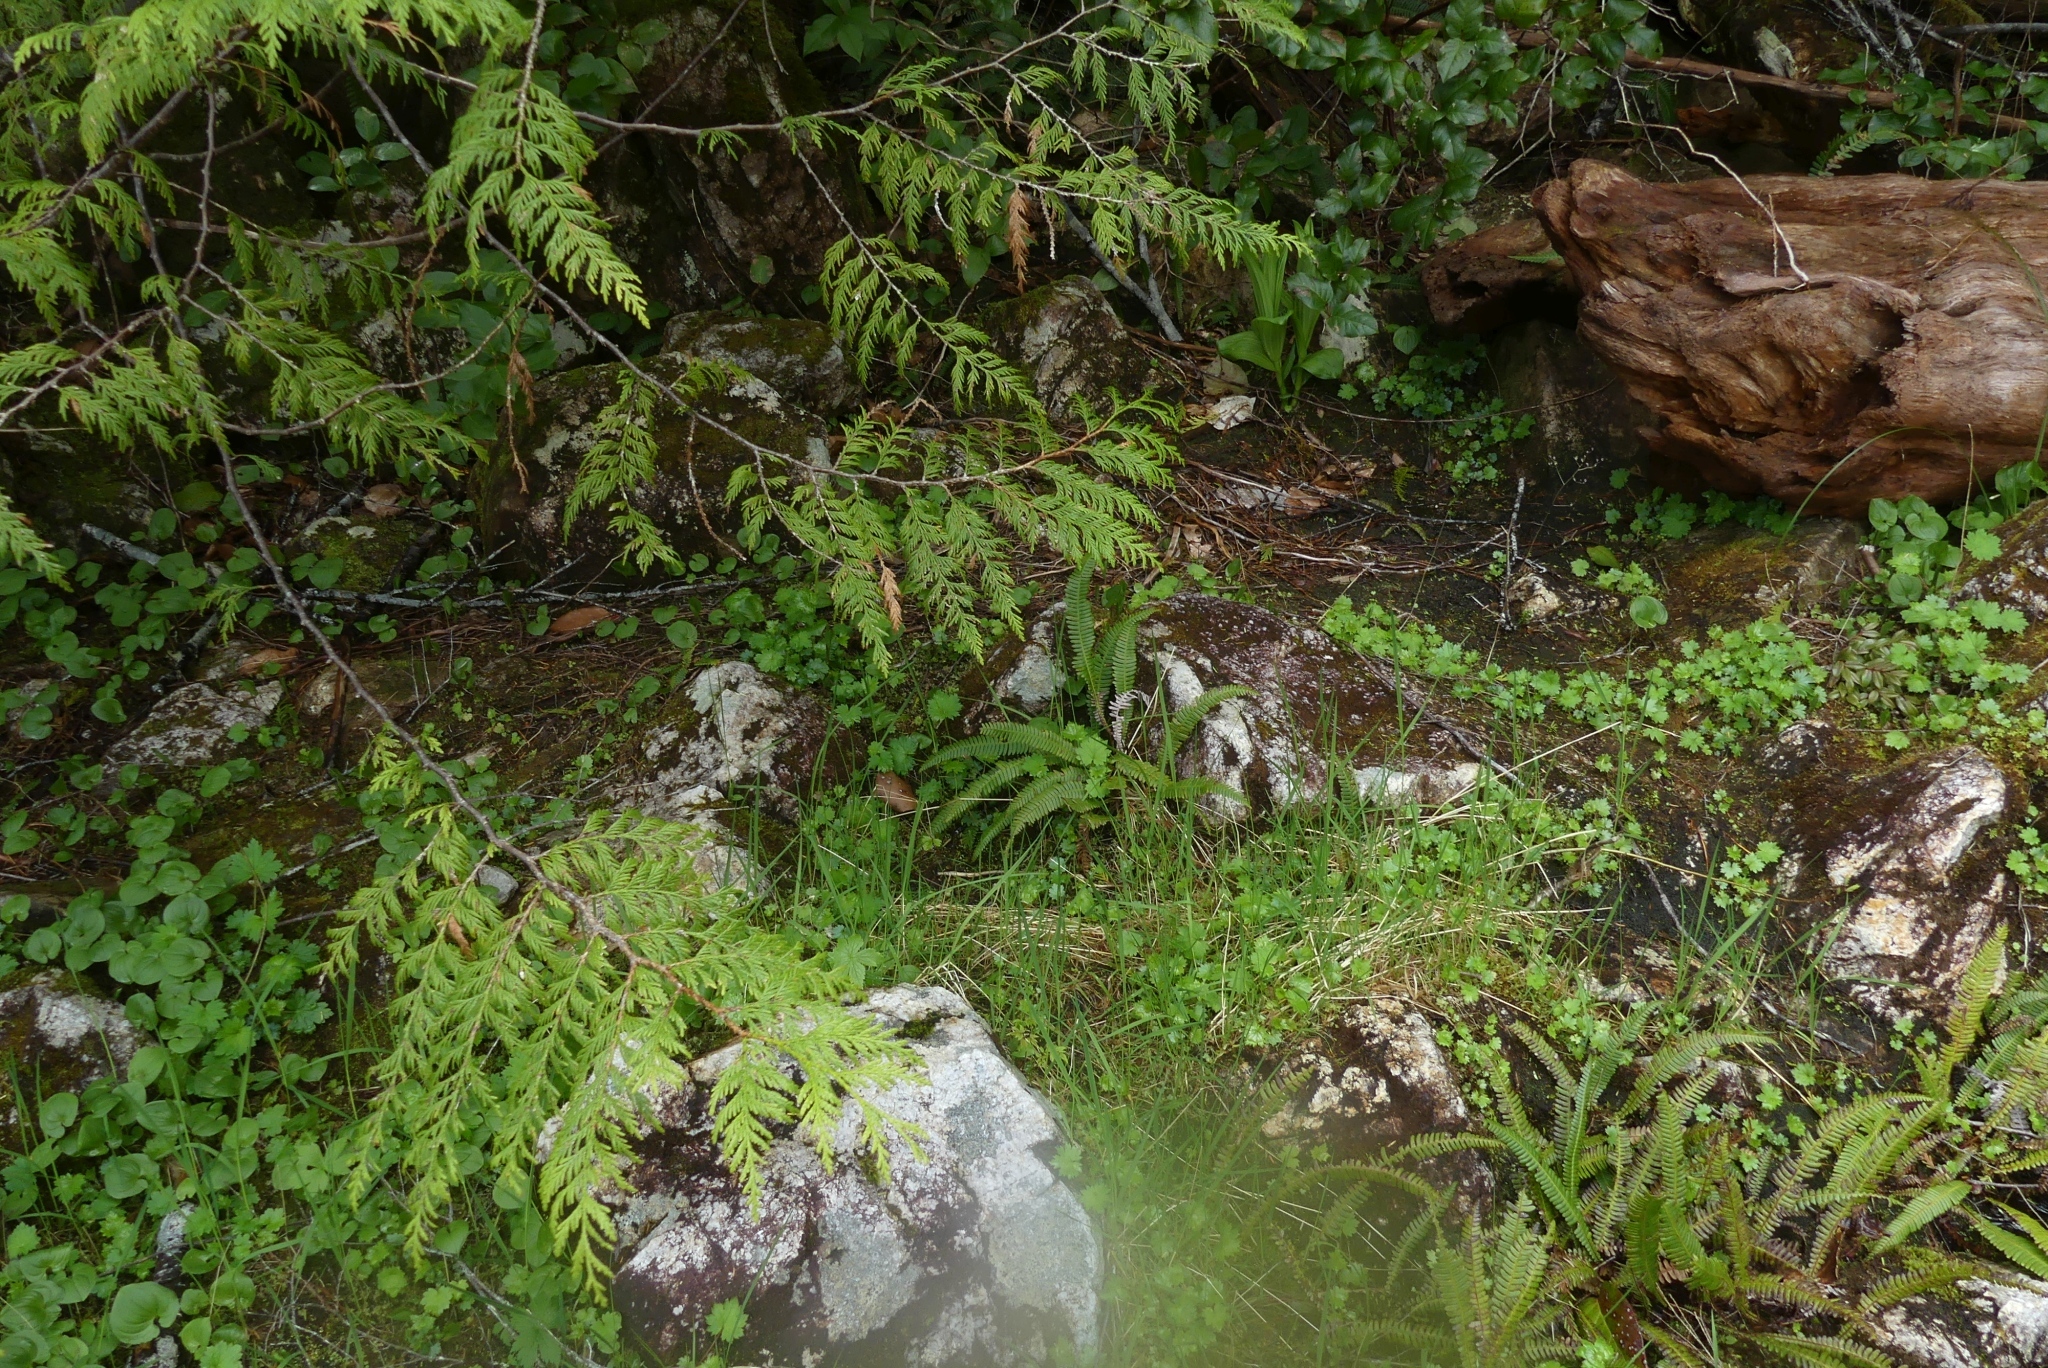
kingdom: Plantae
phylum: Tracheophyta
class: Polypodiopsida
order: Polypodiales
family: Blechnaceae
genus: Struthiopteris
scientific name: Struthiopteris spicant
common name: Deer fern
